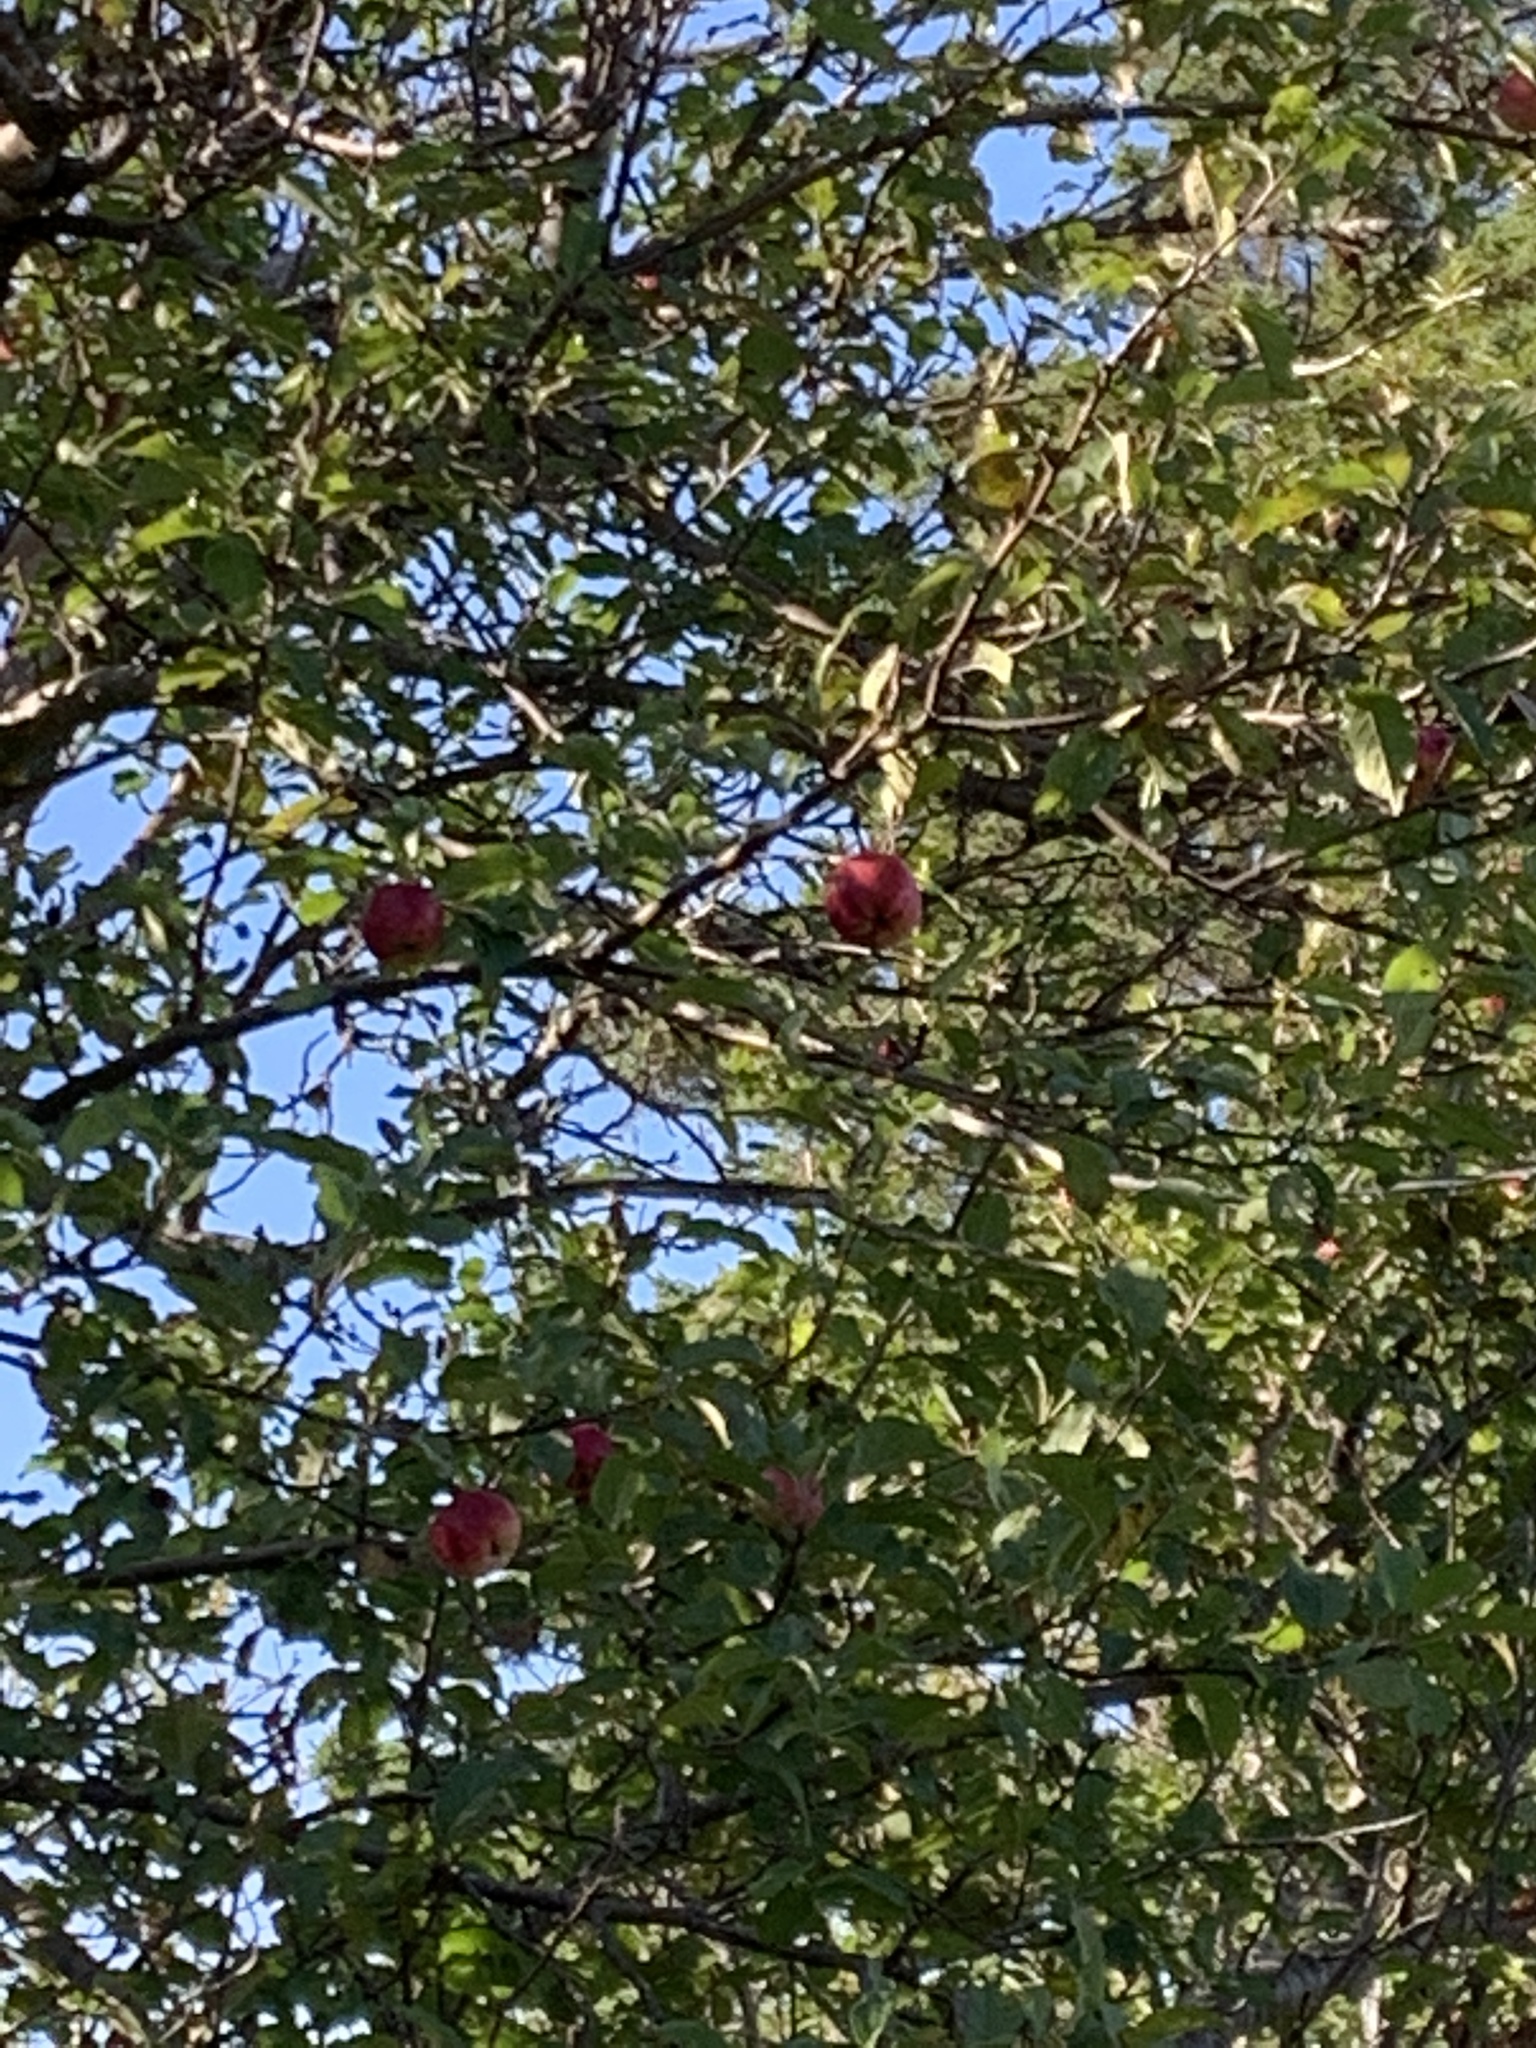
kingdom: Plantae
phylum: Tracheophyta
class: Magnoliopsida
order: Rosales
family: Rosaceae
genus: Malus
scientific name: Malus domestica
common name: Apple
